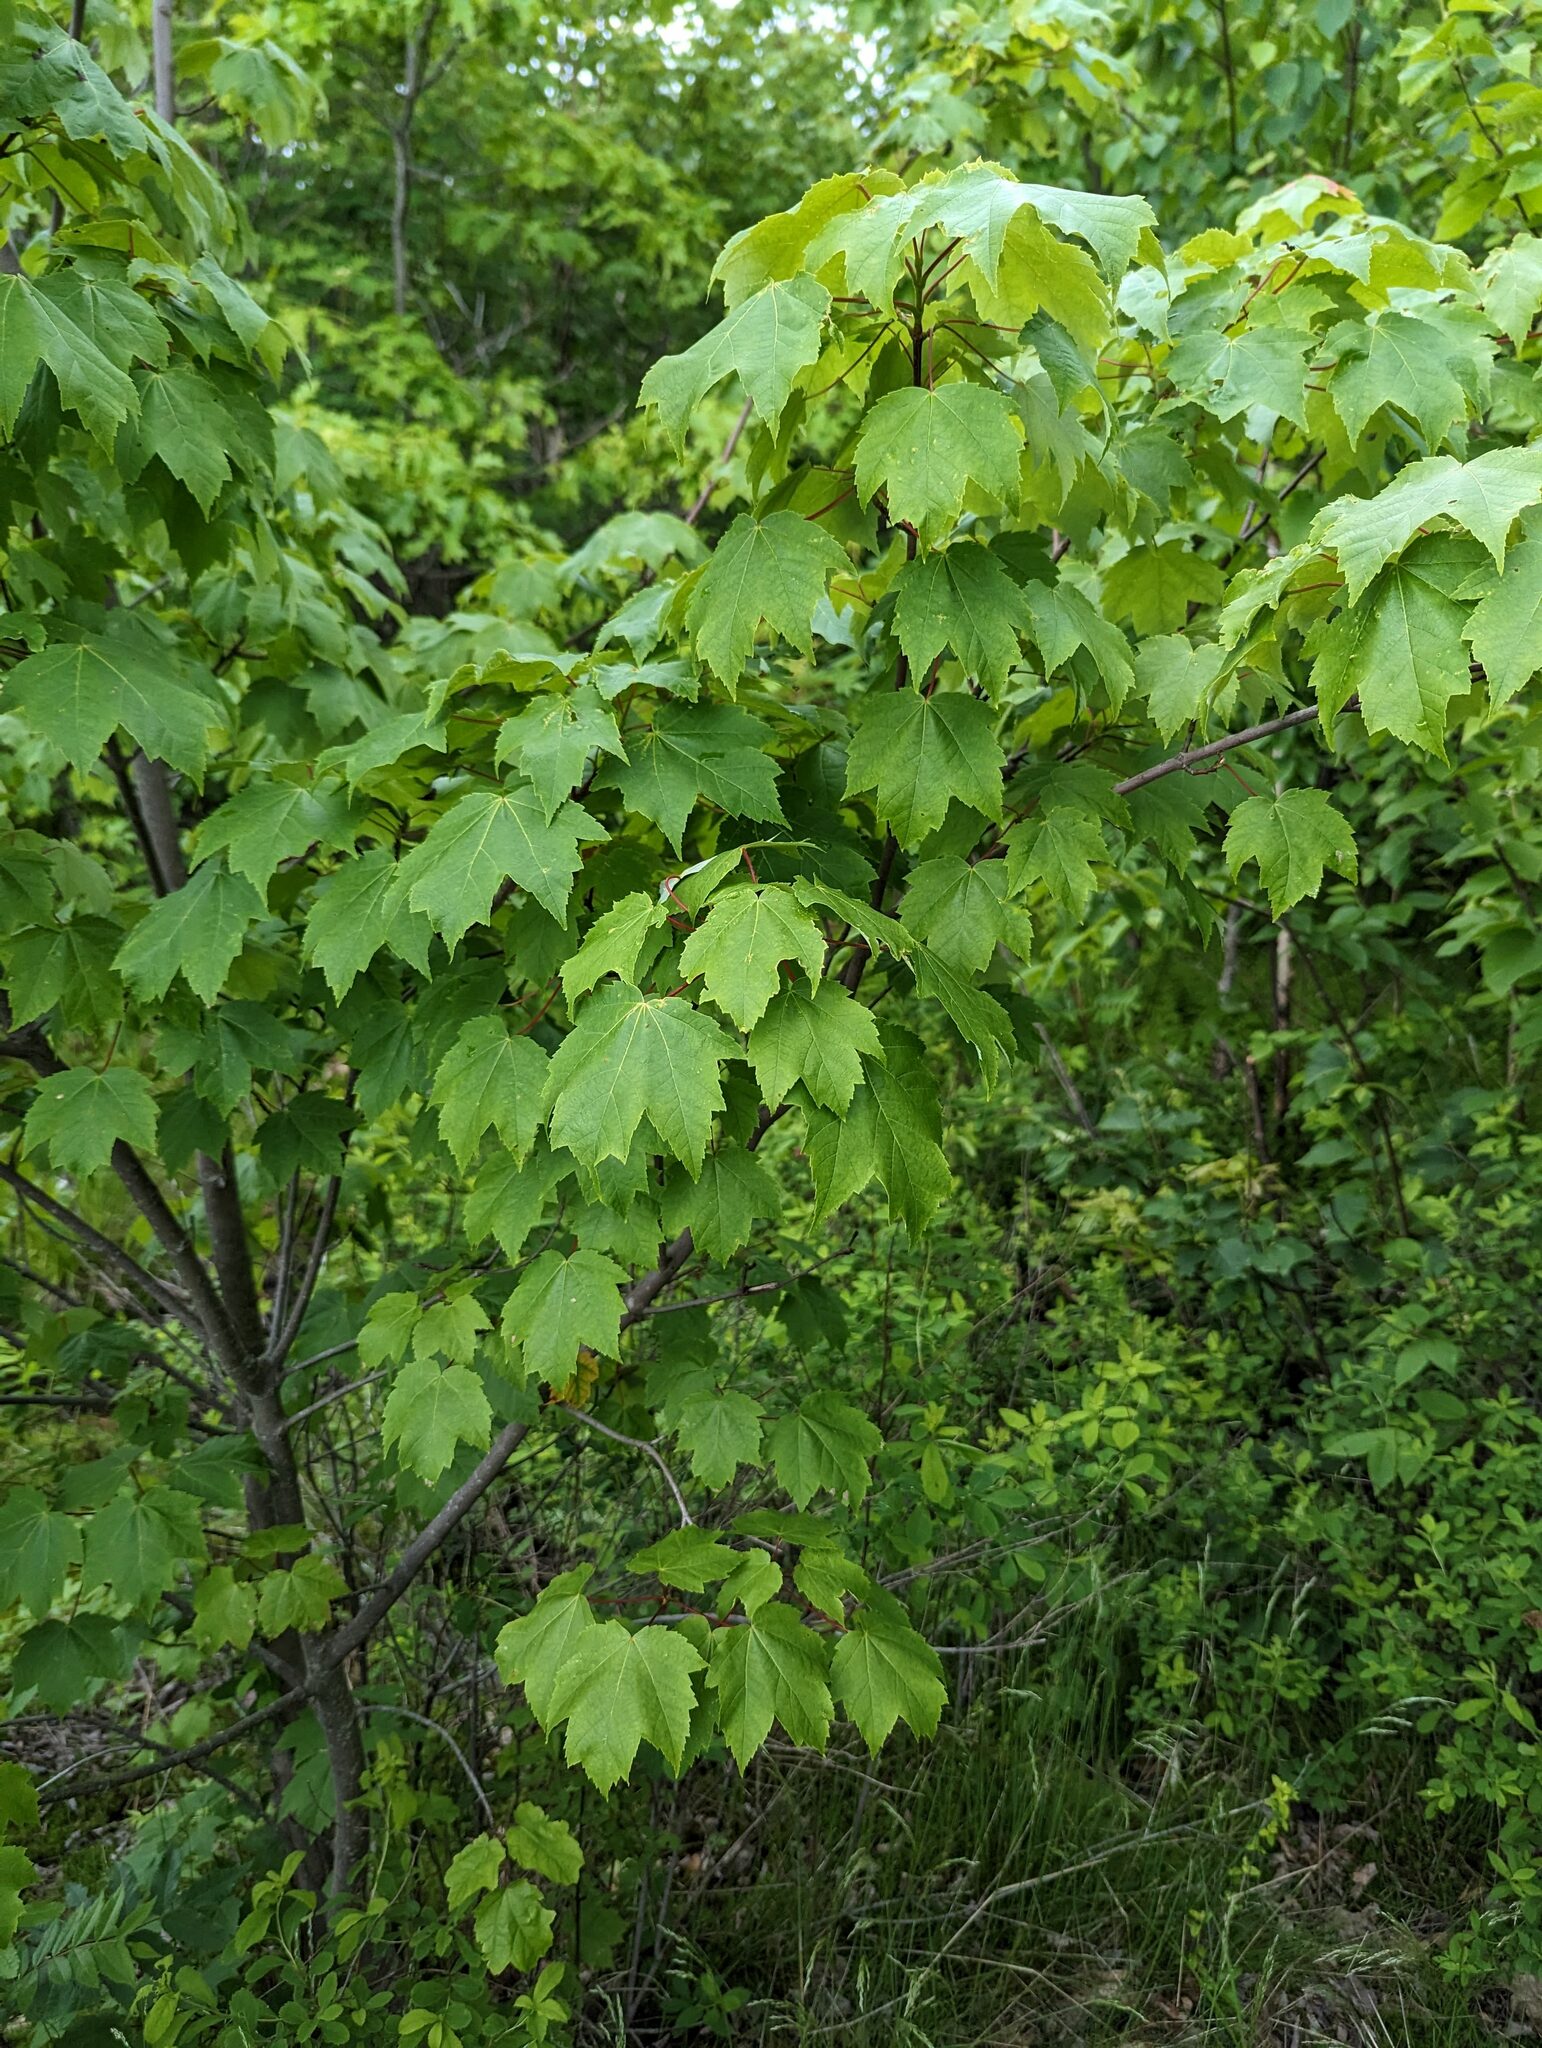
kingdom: Plantae
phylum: Tracheophyta
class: Magnoliopsida
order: Sapindales
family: Sapindaceae
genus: Acer
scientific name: Acer rubrum
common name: Red maple
